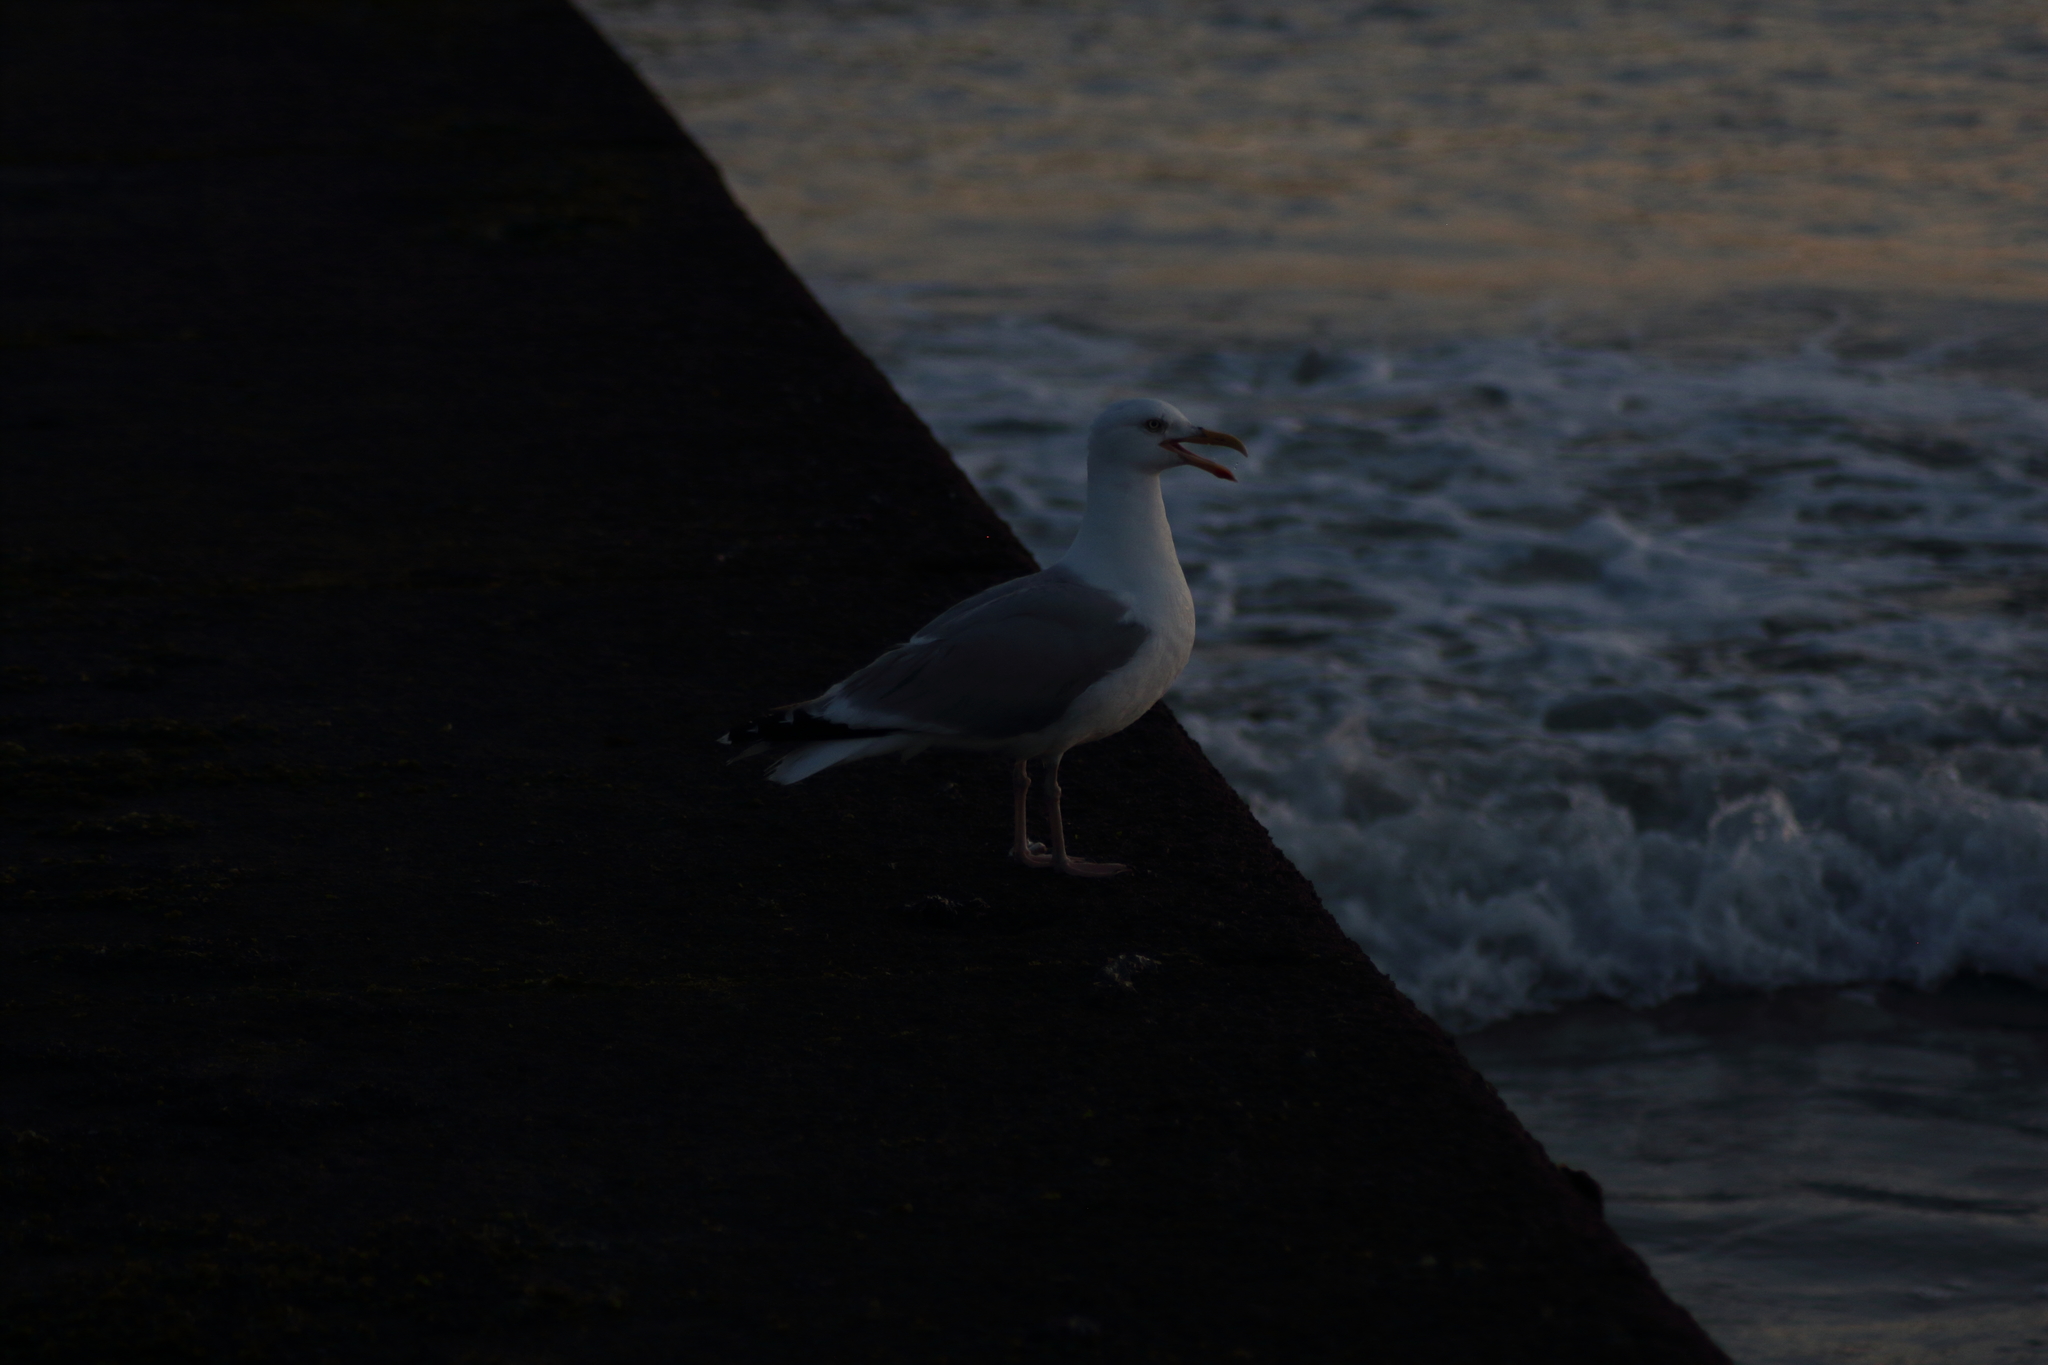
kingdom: Animalia
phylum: Chordata
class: Aves
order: Charadriiformes
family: Laridae
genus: Larus
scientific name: Larus argentatus
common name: Herring gull
